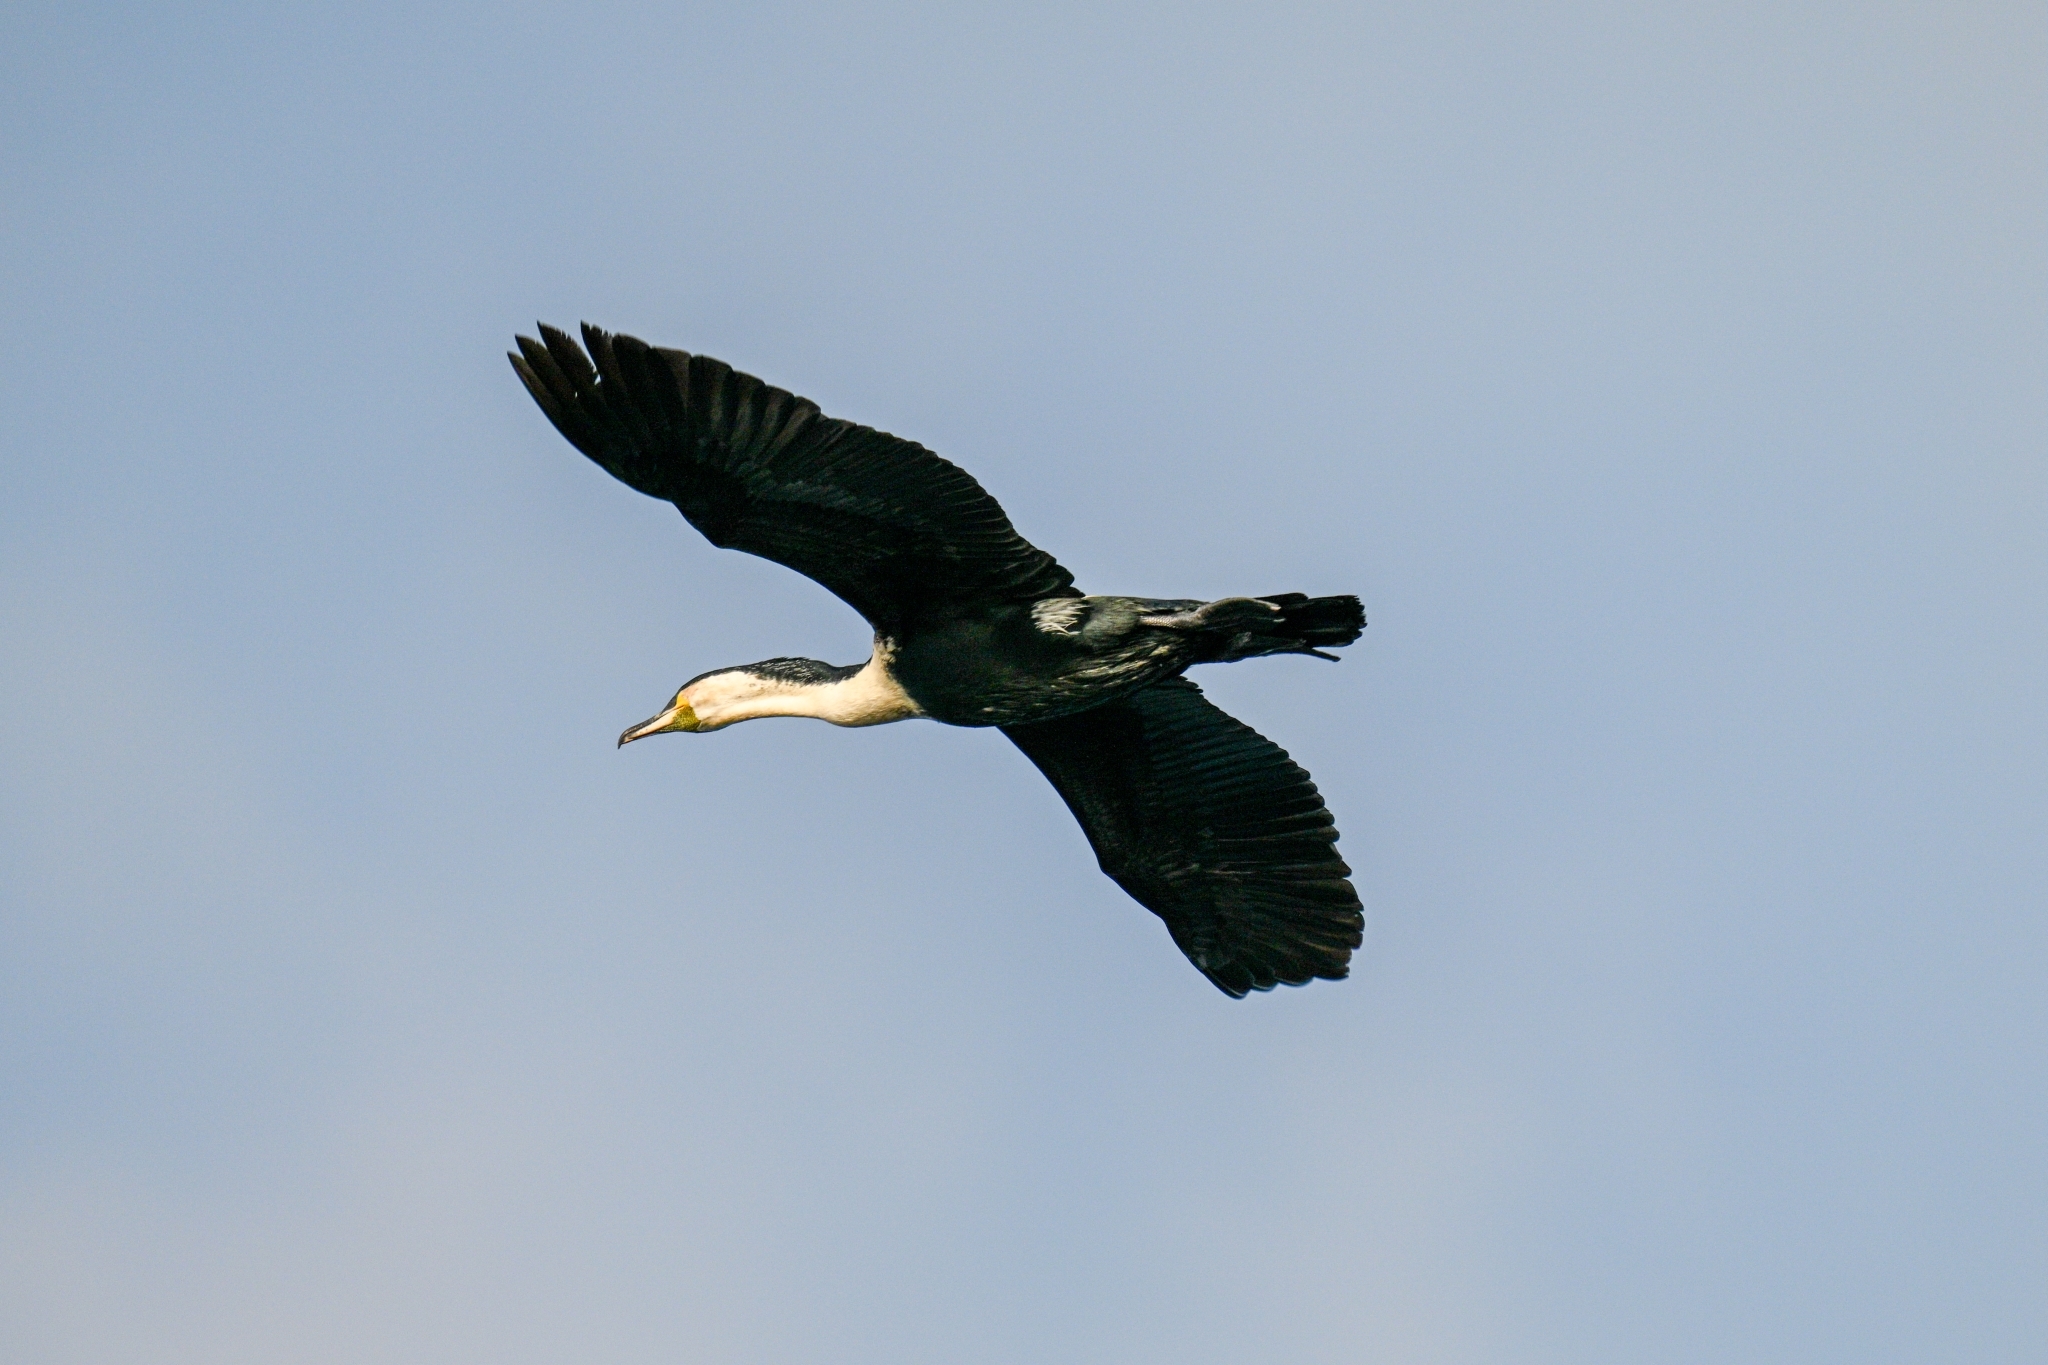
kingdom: Animalia
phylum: Chordata
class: Aves
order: Suliformes
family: Phalacrocoracidae
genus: Phalacrocorax
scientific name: Phalacrocorax carbo
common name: Great cormorant
